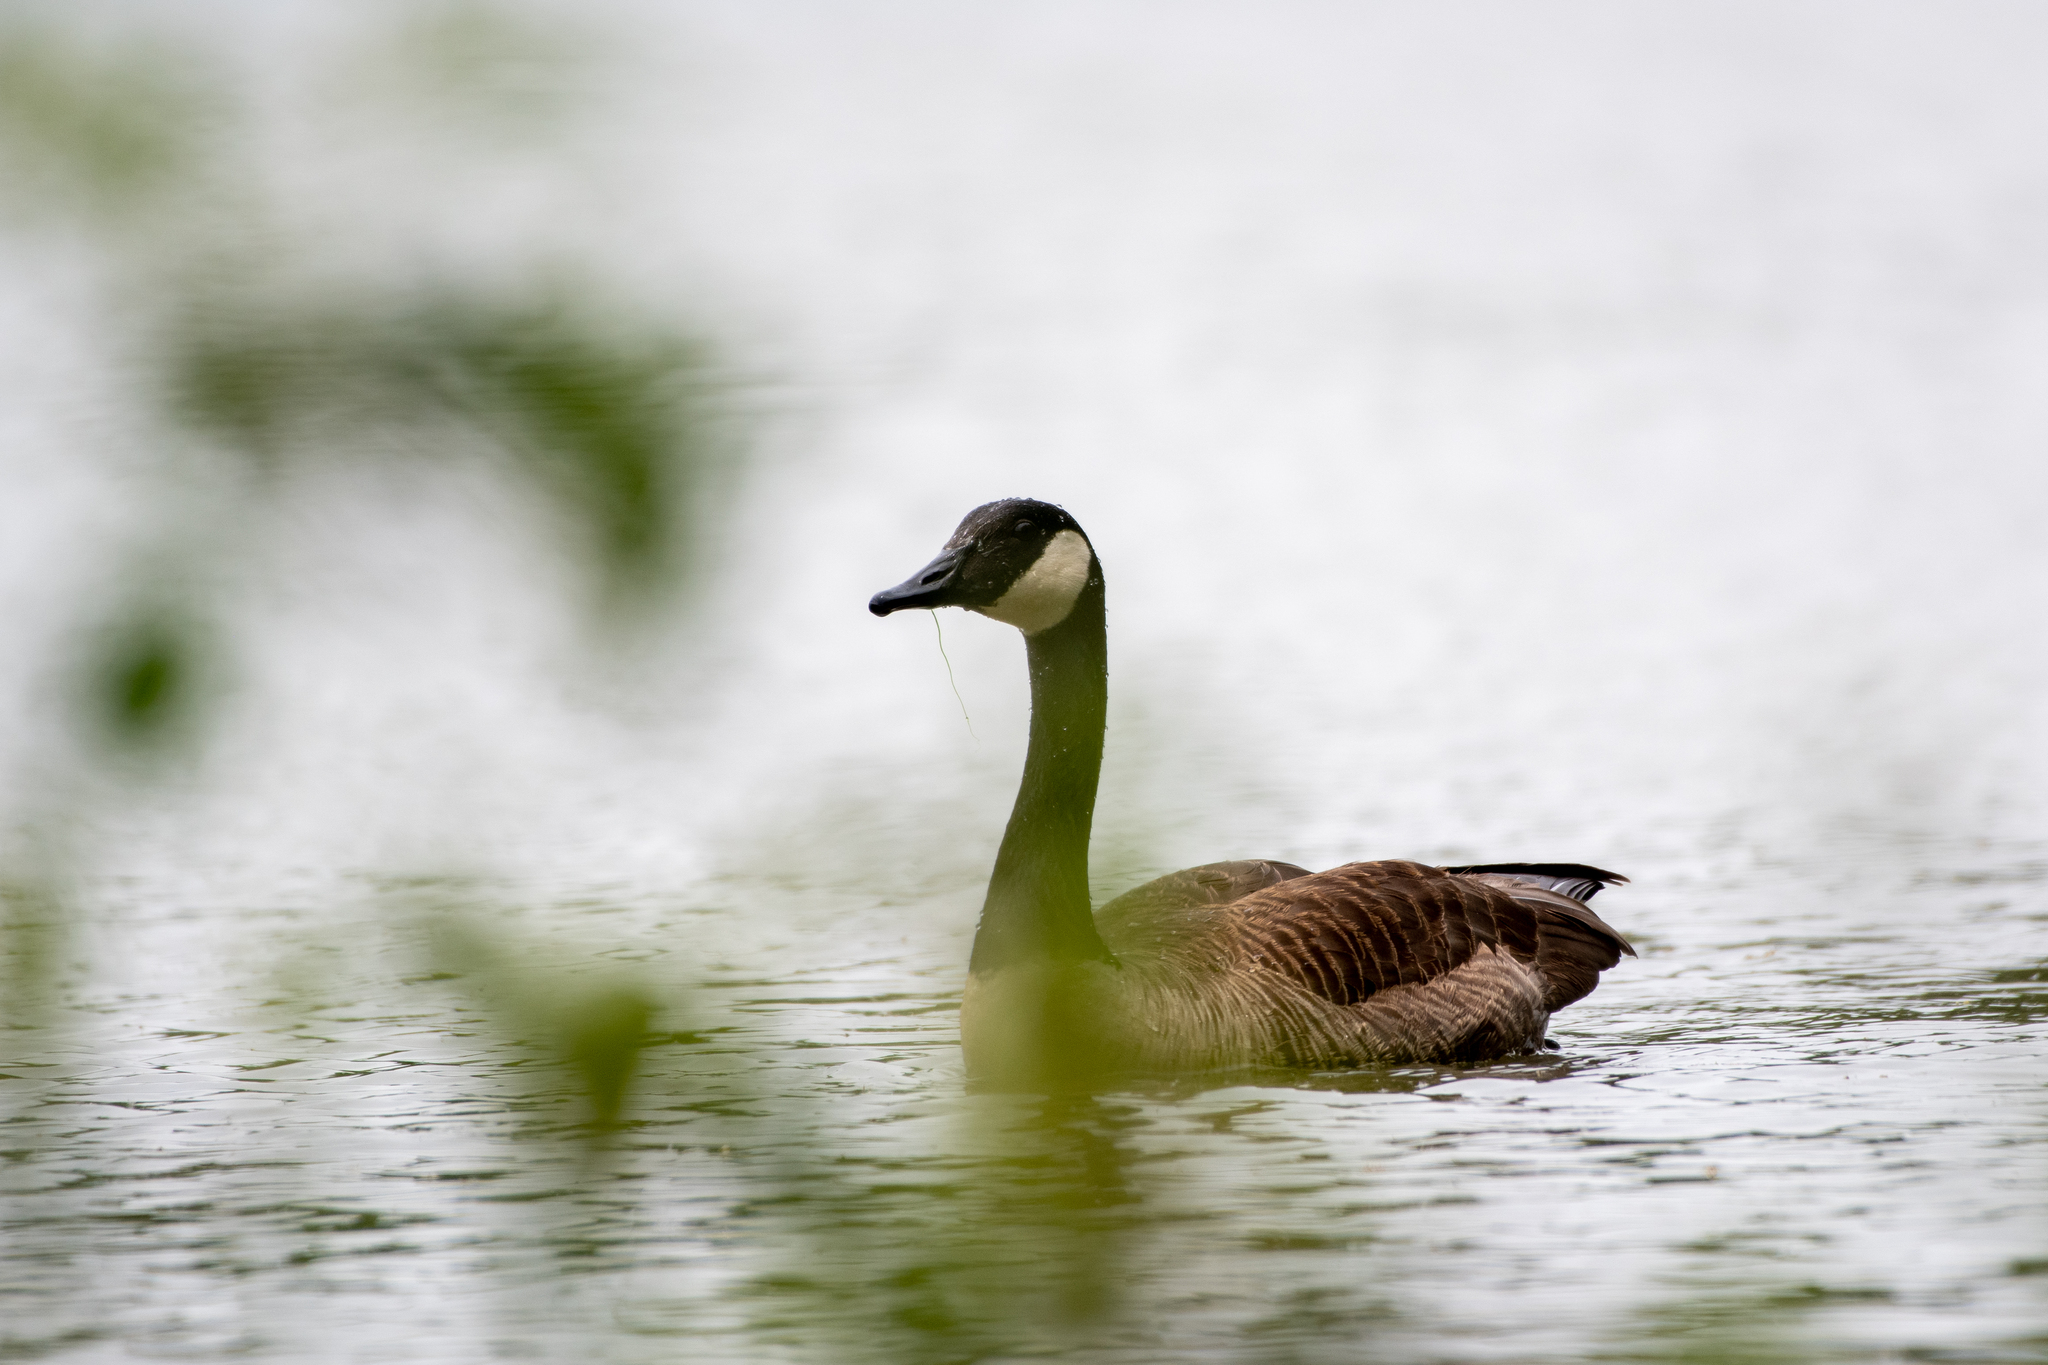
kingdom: Animalia
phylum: Chordata
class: Aves
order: Anseriformes
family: Anatidae
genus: Branta
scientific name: Branta canadensis
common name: Canada goose
